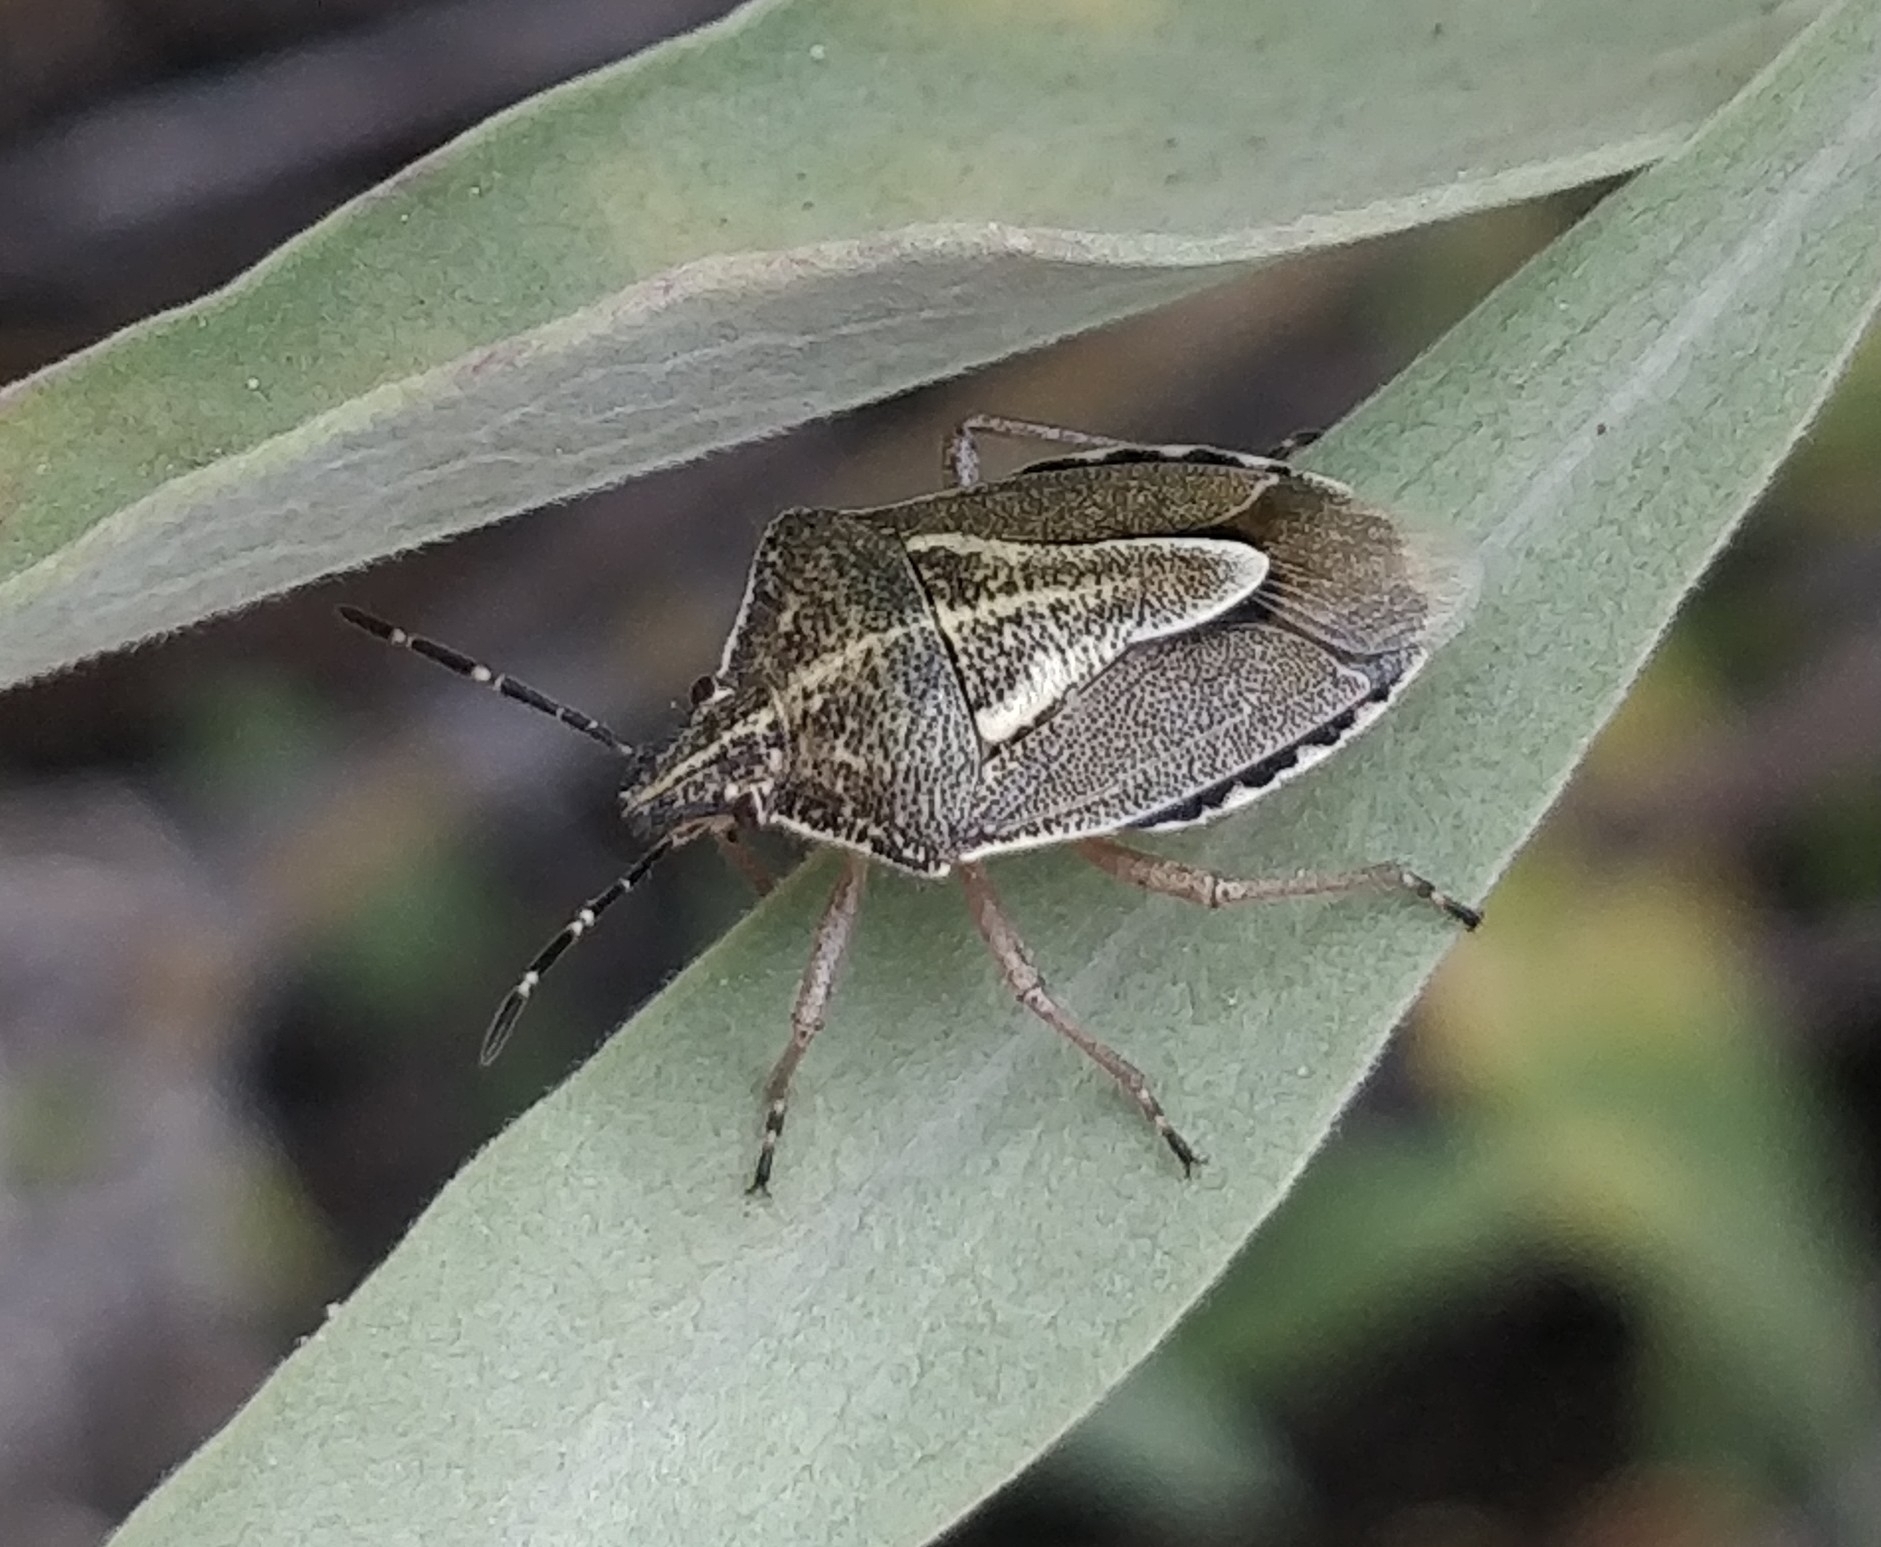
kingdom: Animalia
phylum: Arthropoda
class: Insecta
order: Hemiptera
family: Pentatomidae
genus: Eudolycoris
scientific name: Eudolycoris alluaudi
